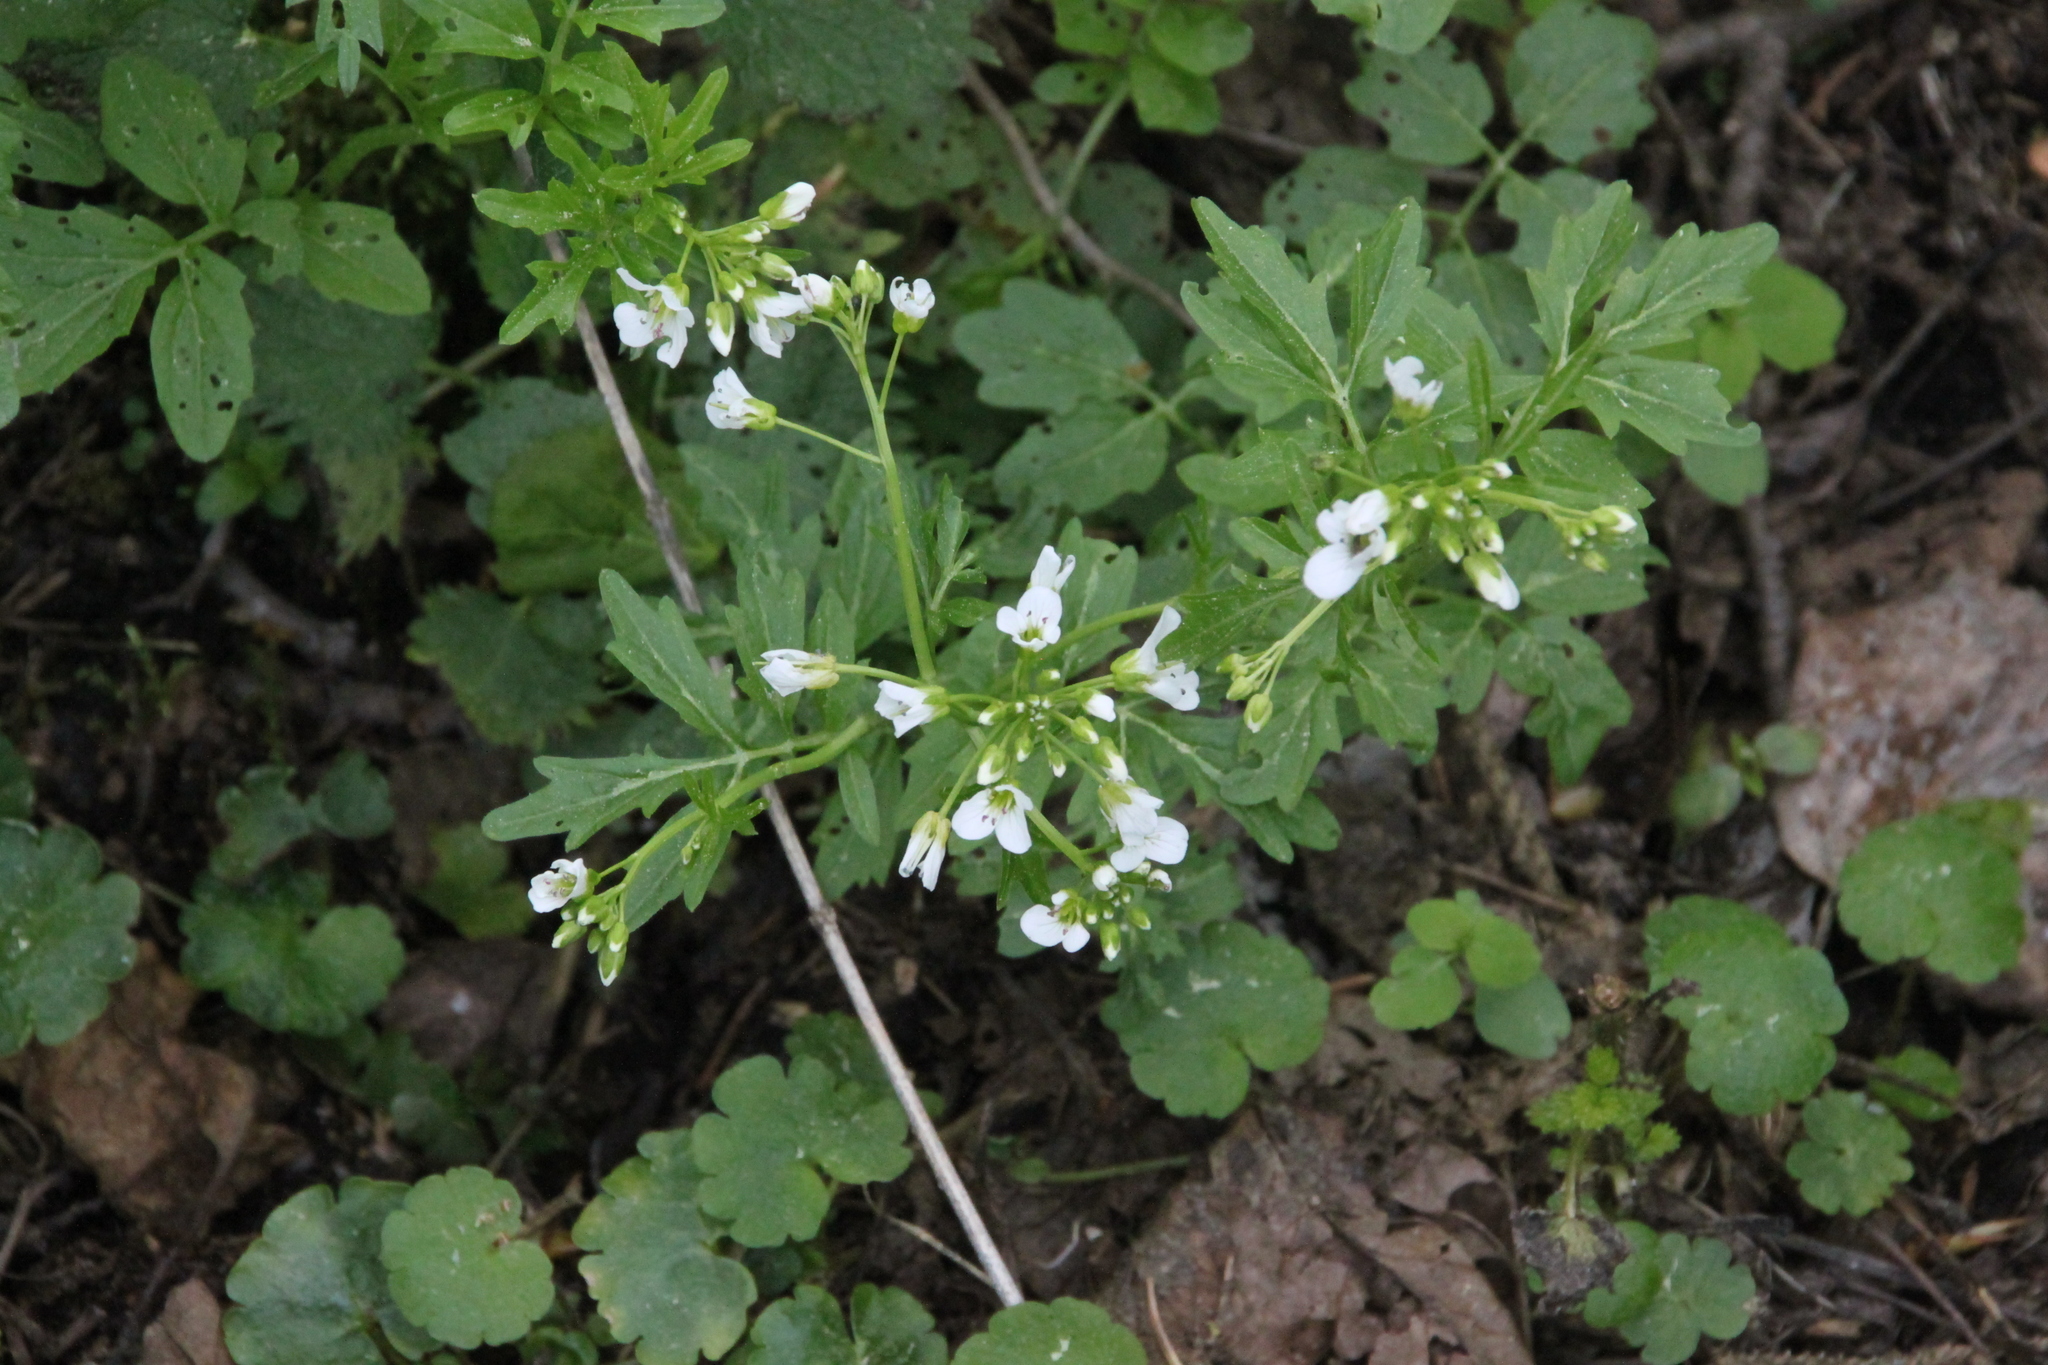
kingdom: Plantae
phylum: Tracheophyta
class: Magnoliopsida
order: Brassicales
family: Brassicaceae
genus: Cardamine
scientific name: Cardamine amara
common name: Large bitter-cress
